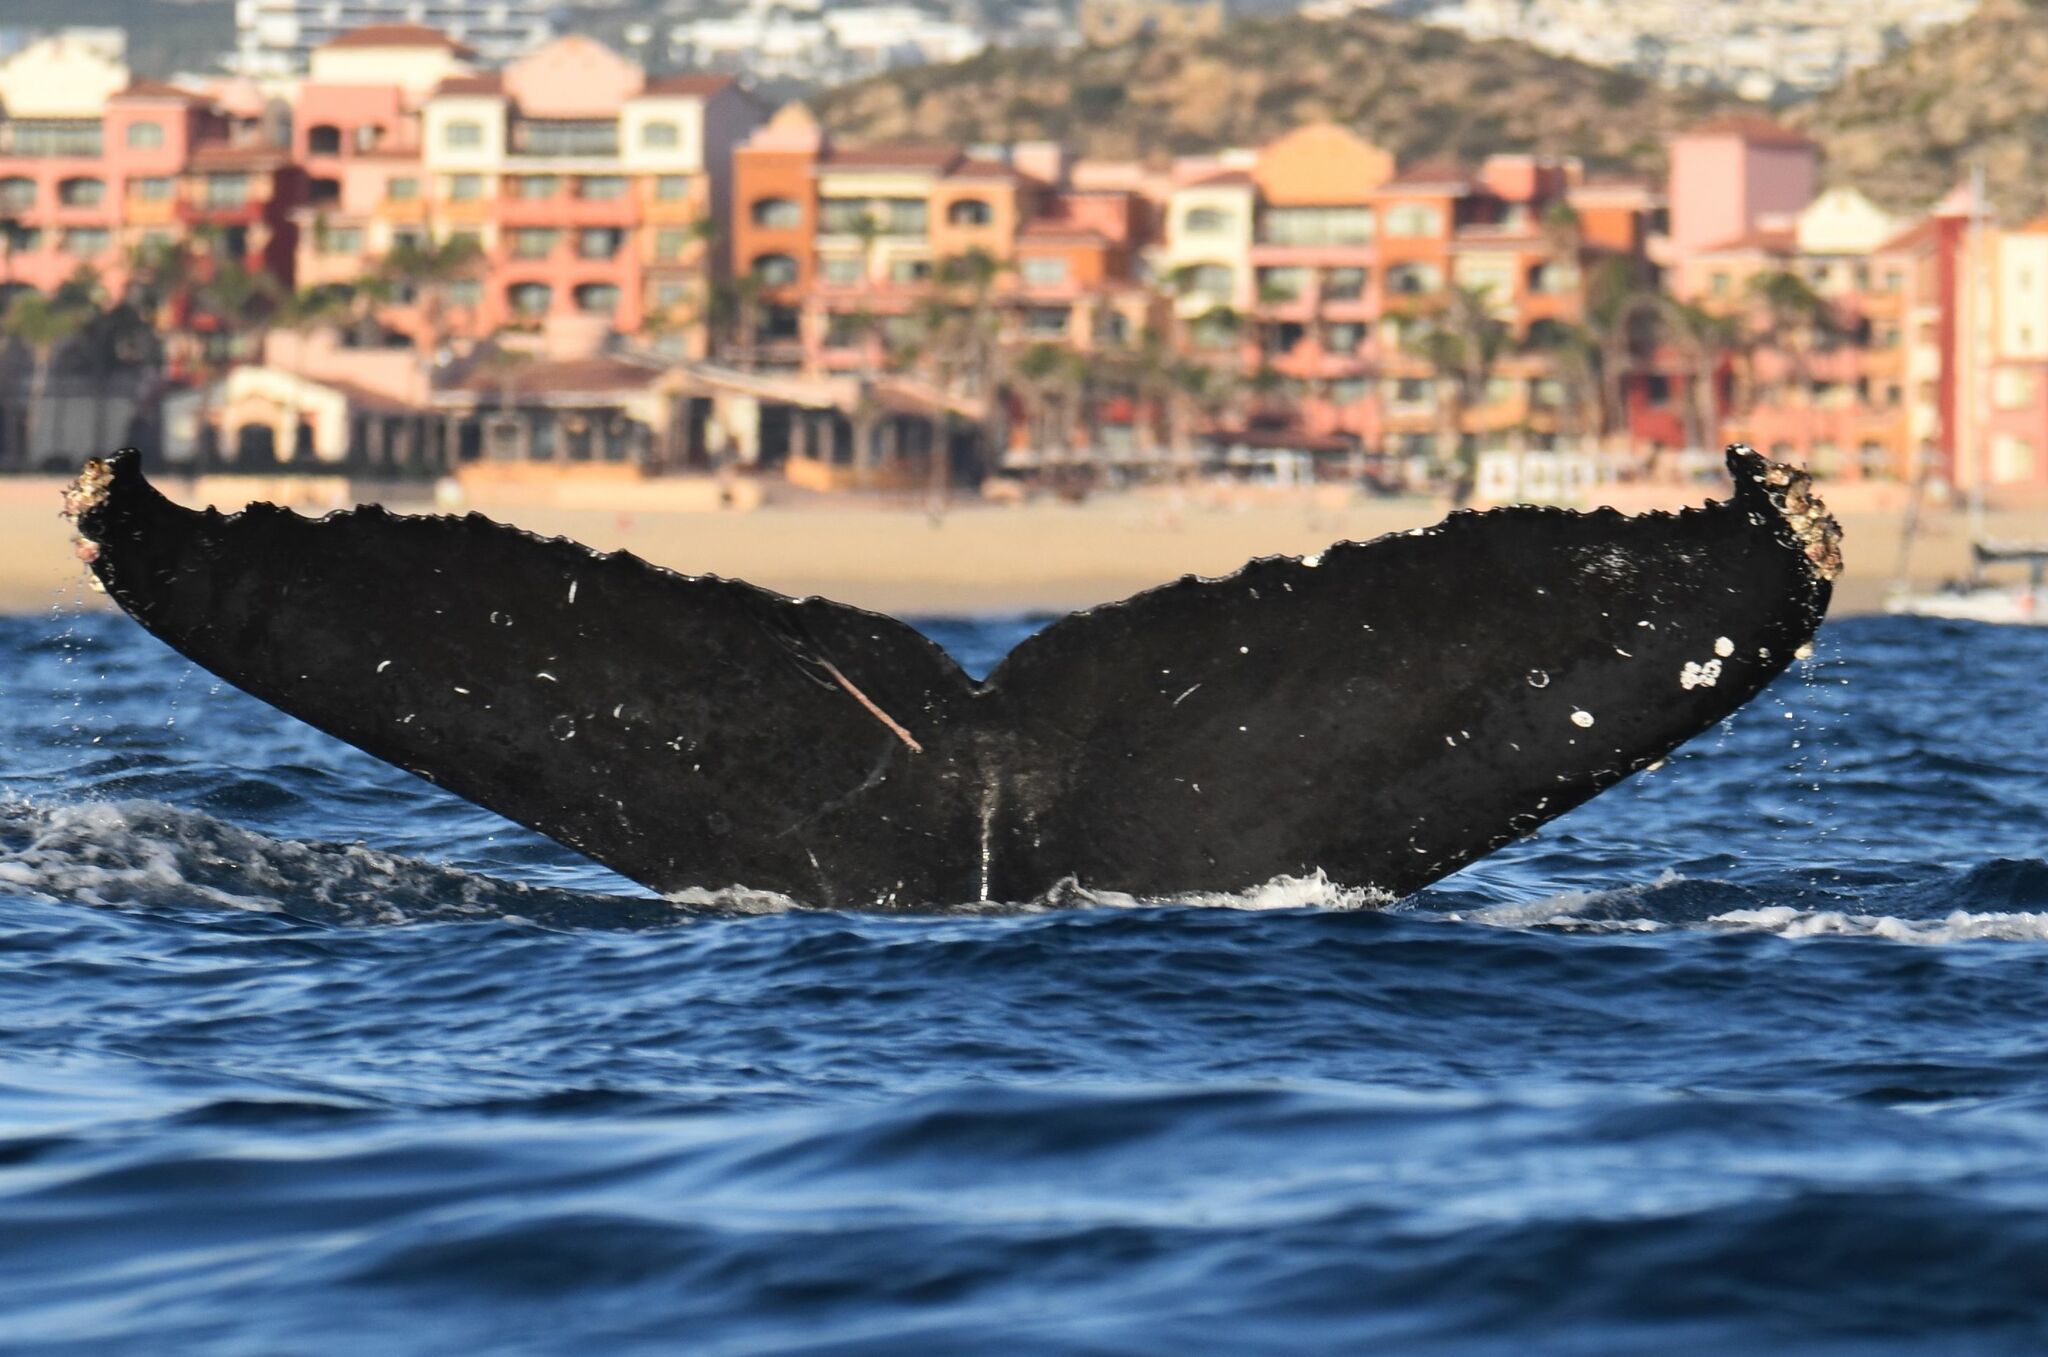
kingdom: Animalia
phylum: Chordata
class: Mammalia
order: Cetacea
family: Balaenopteridae
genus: Megaptera
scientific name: Megaptera novaeangliae
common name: Humpback whale
